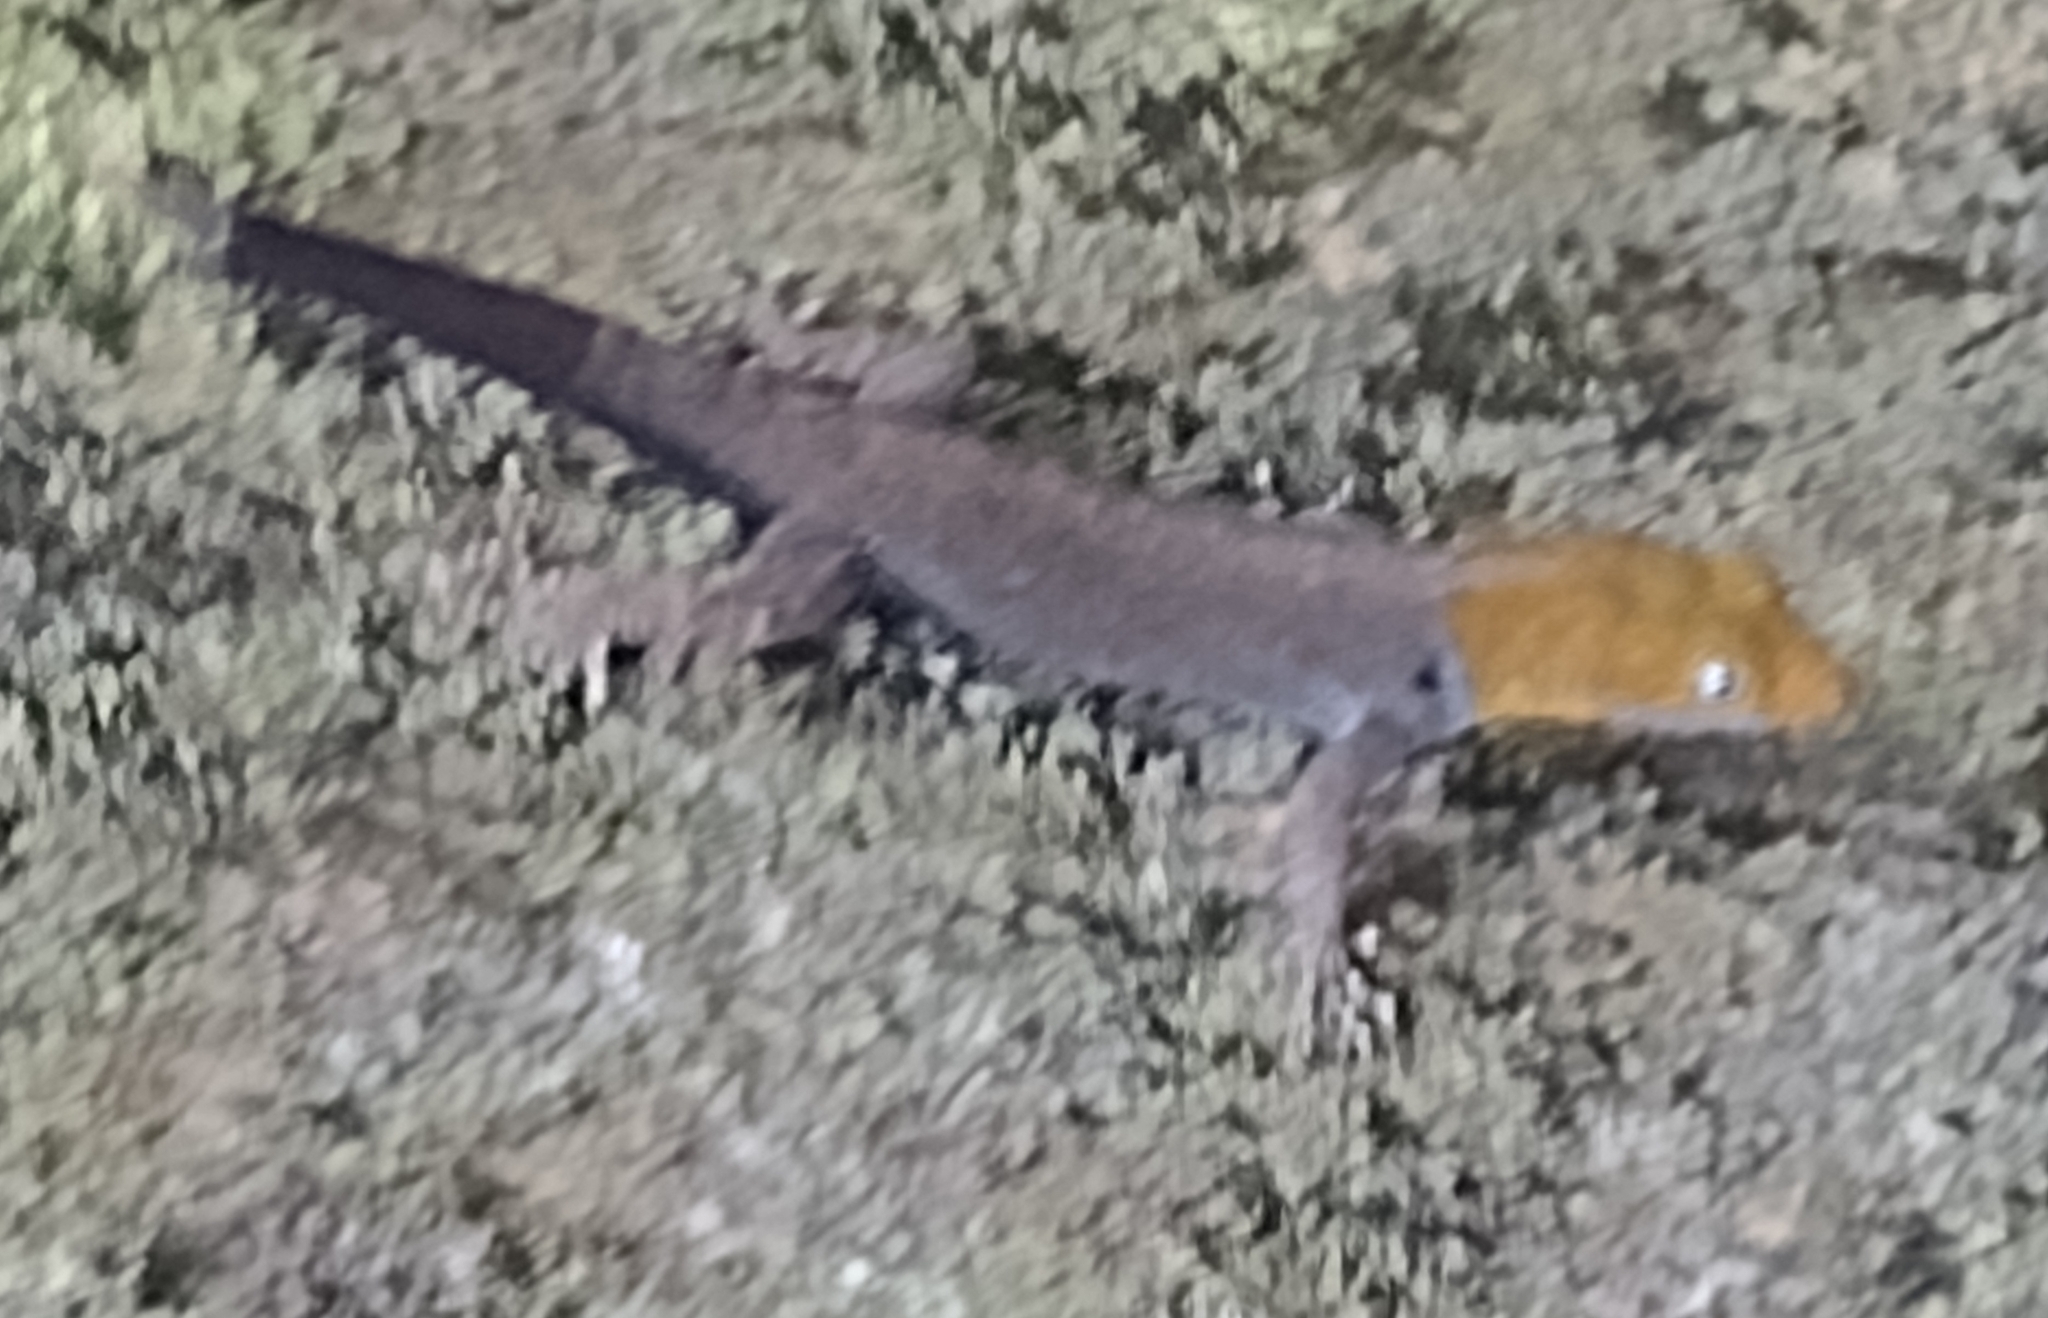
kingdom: Animalia
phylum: Chordata
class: Squamata
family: Sphaerodactylidae
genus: Gonatodes
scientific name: Gonatodes albogularis
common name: Yellow-headed gecko
